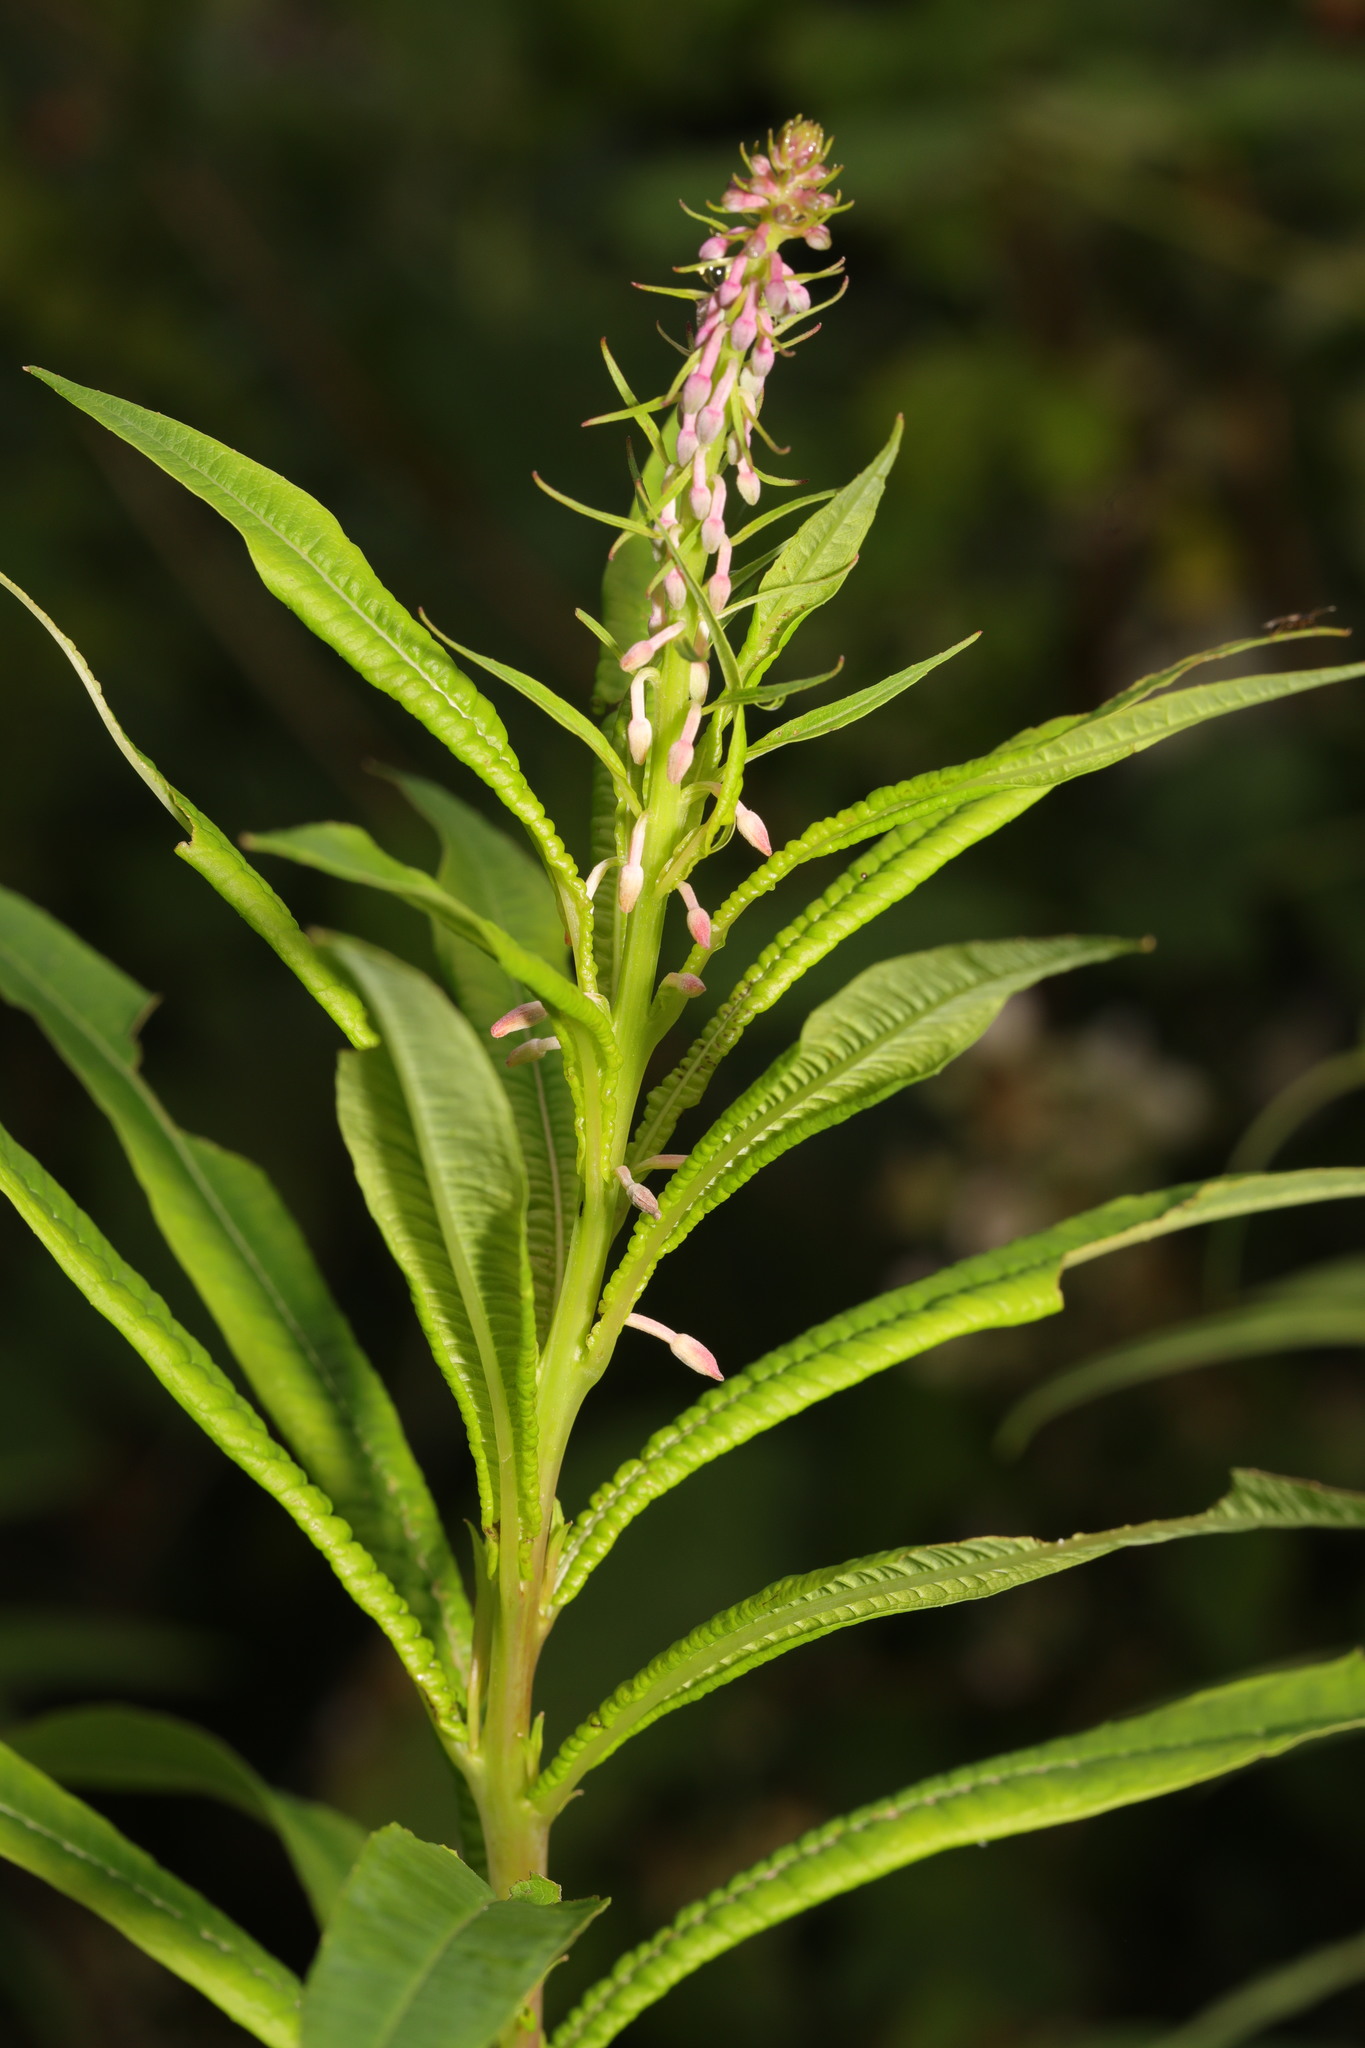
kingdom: Plantae
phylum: Tracheophyta
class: Magnoliopsida
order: Myrtales
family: Onagraceae
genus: Chamaenerion
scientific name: Chamaenerion angustifolium
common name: Fireweed
